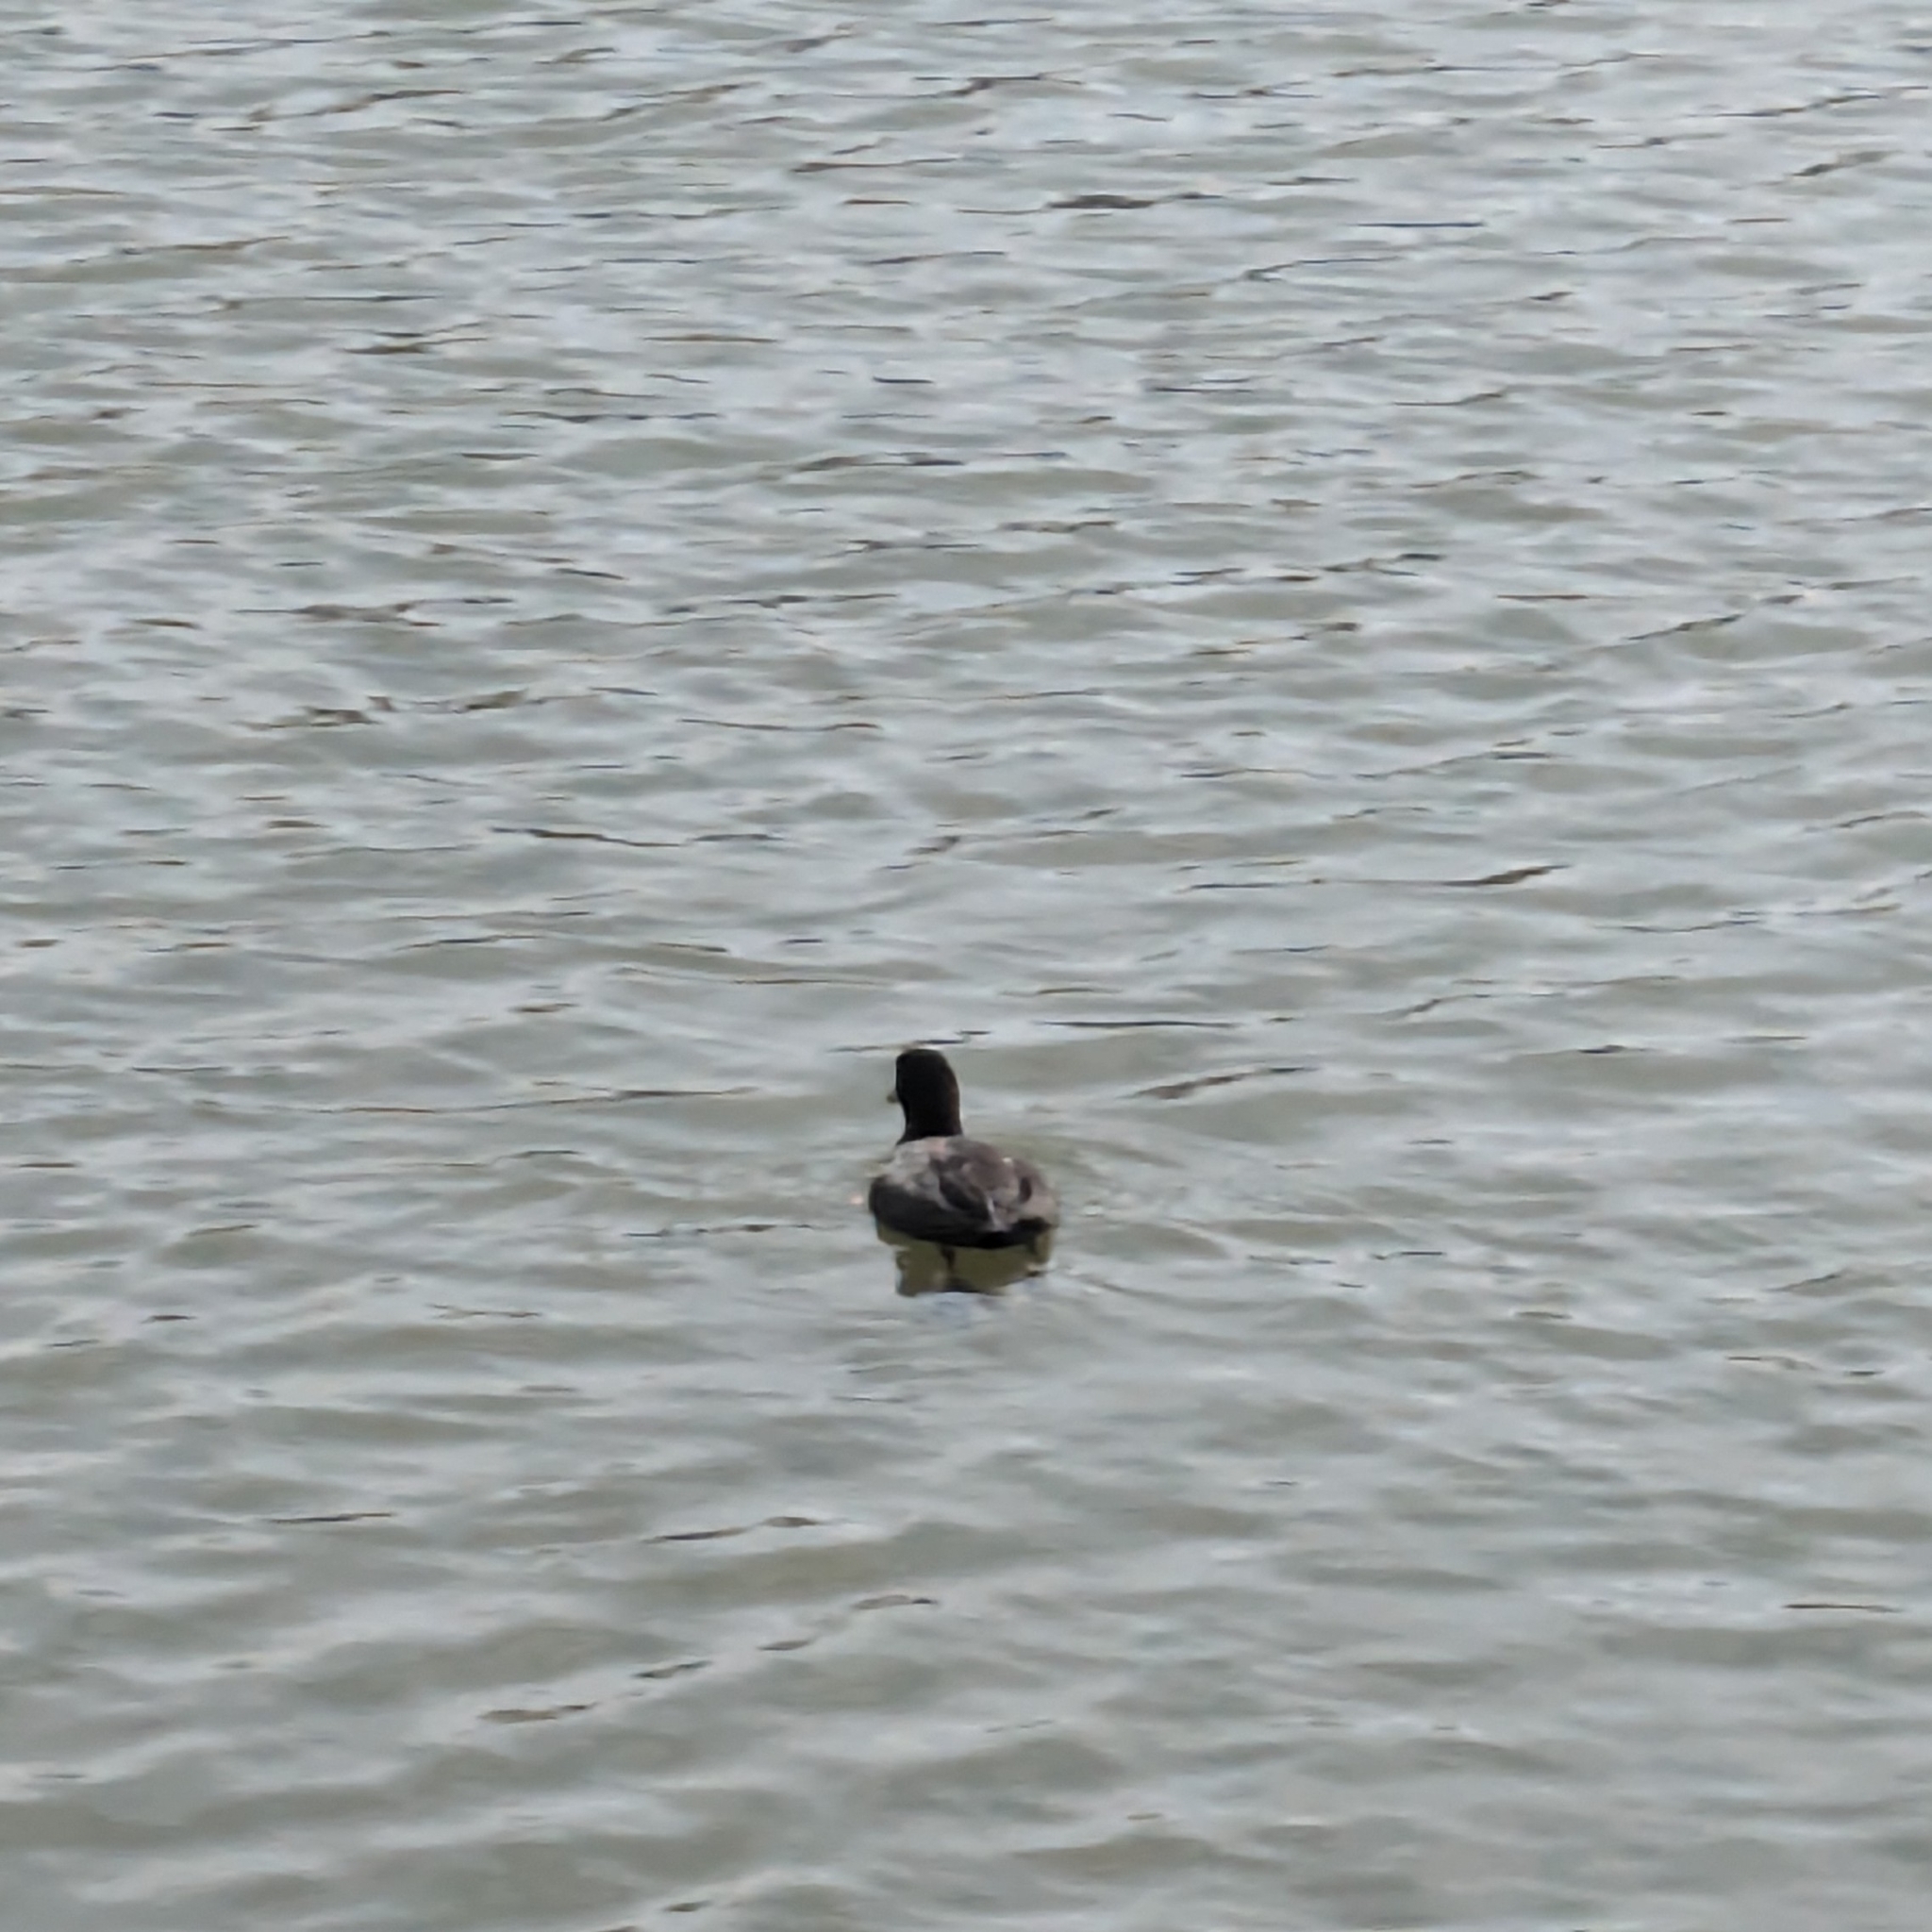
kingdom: Animalia
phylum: Chordata
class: Aves
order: Gruiformes
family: Rallidae
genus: Fulica
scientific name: Fulica americana
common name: American coot
